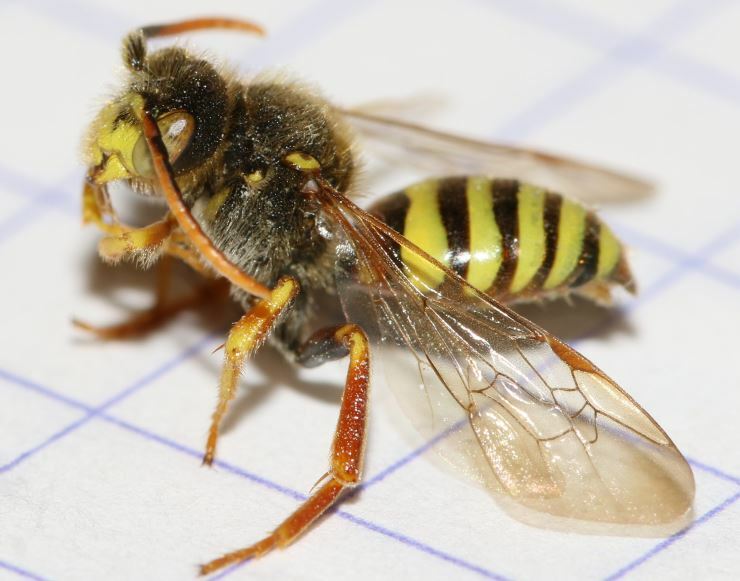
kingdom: Animalia
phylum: Arthropoda
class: Insecta
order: Hymenoptera
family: Apidae
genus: Nomada
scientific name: Nomada lathburiana
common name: Lathbury's nomad bee
